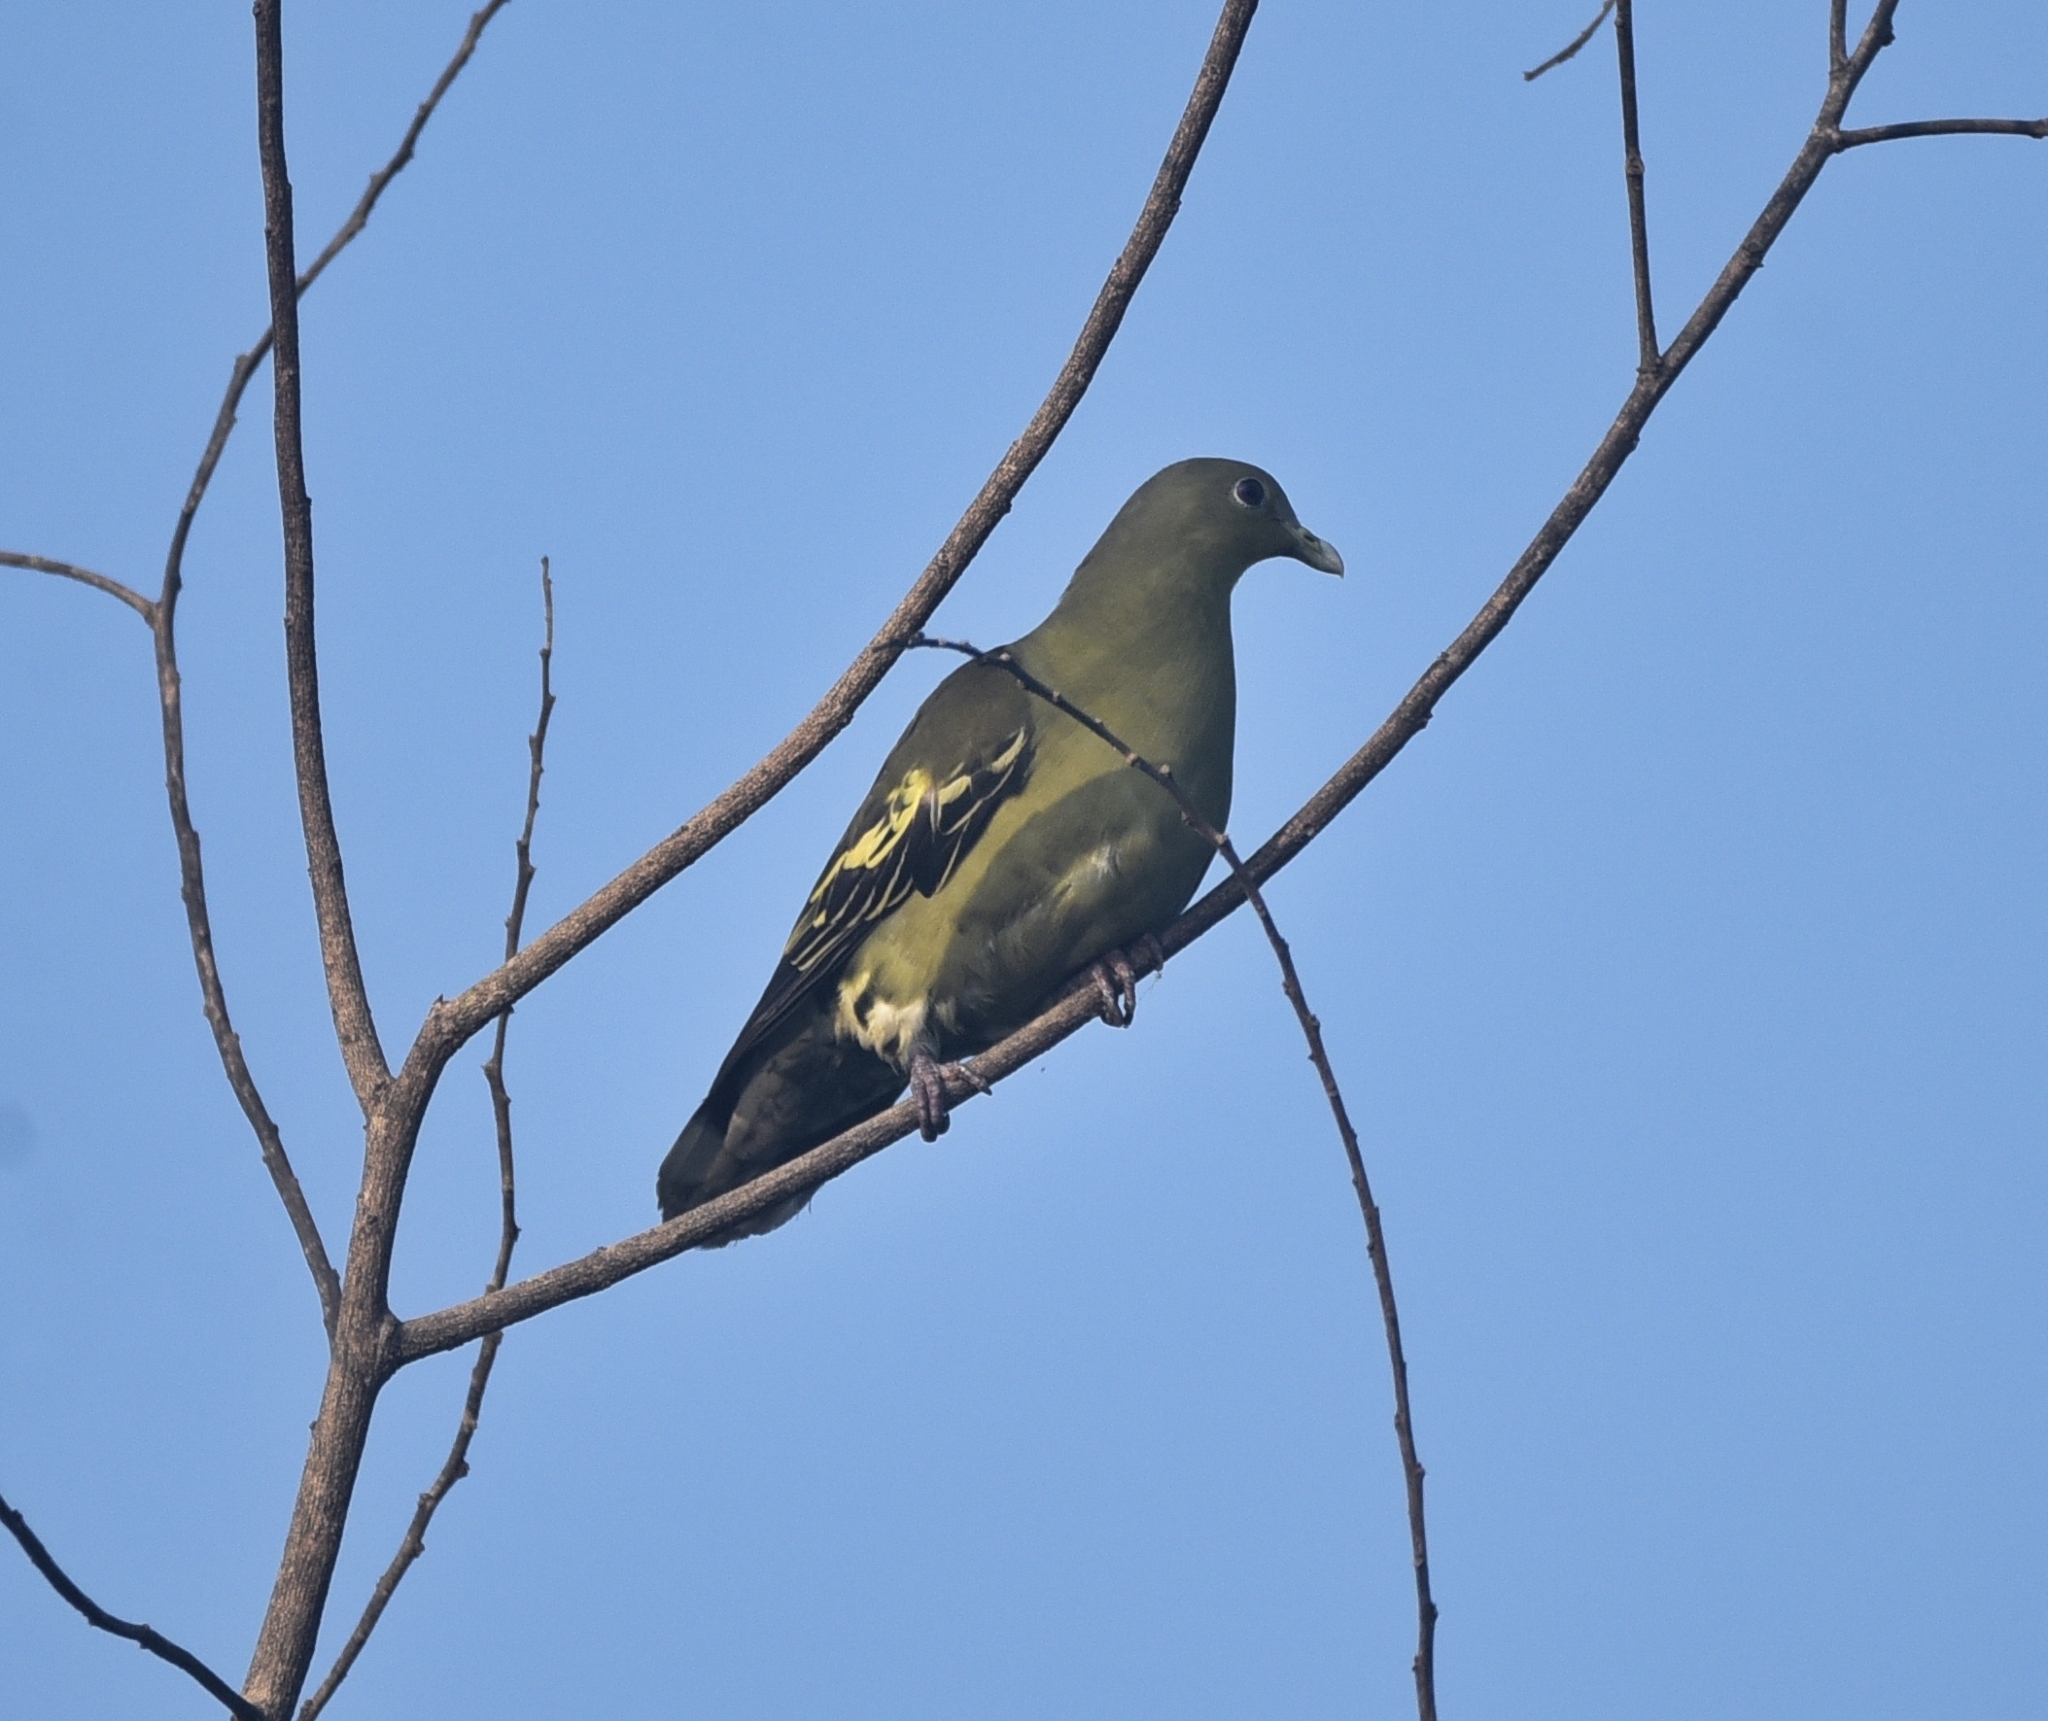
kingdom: Animalia
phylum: Chordata
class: Aves
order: Columbiformes
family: Columbidae
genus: Treron
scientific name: Treron affinis
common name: Grey-fronted green pigeon
